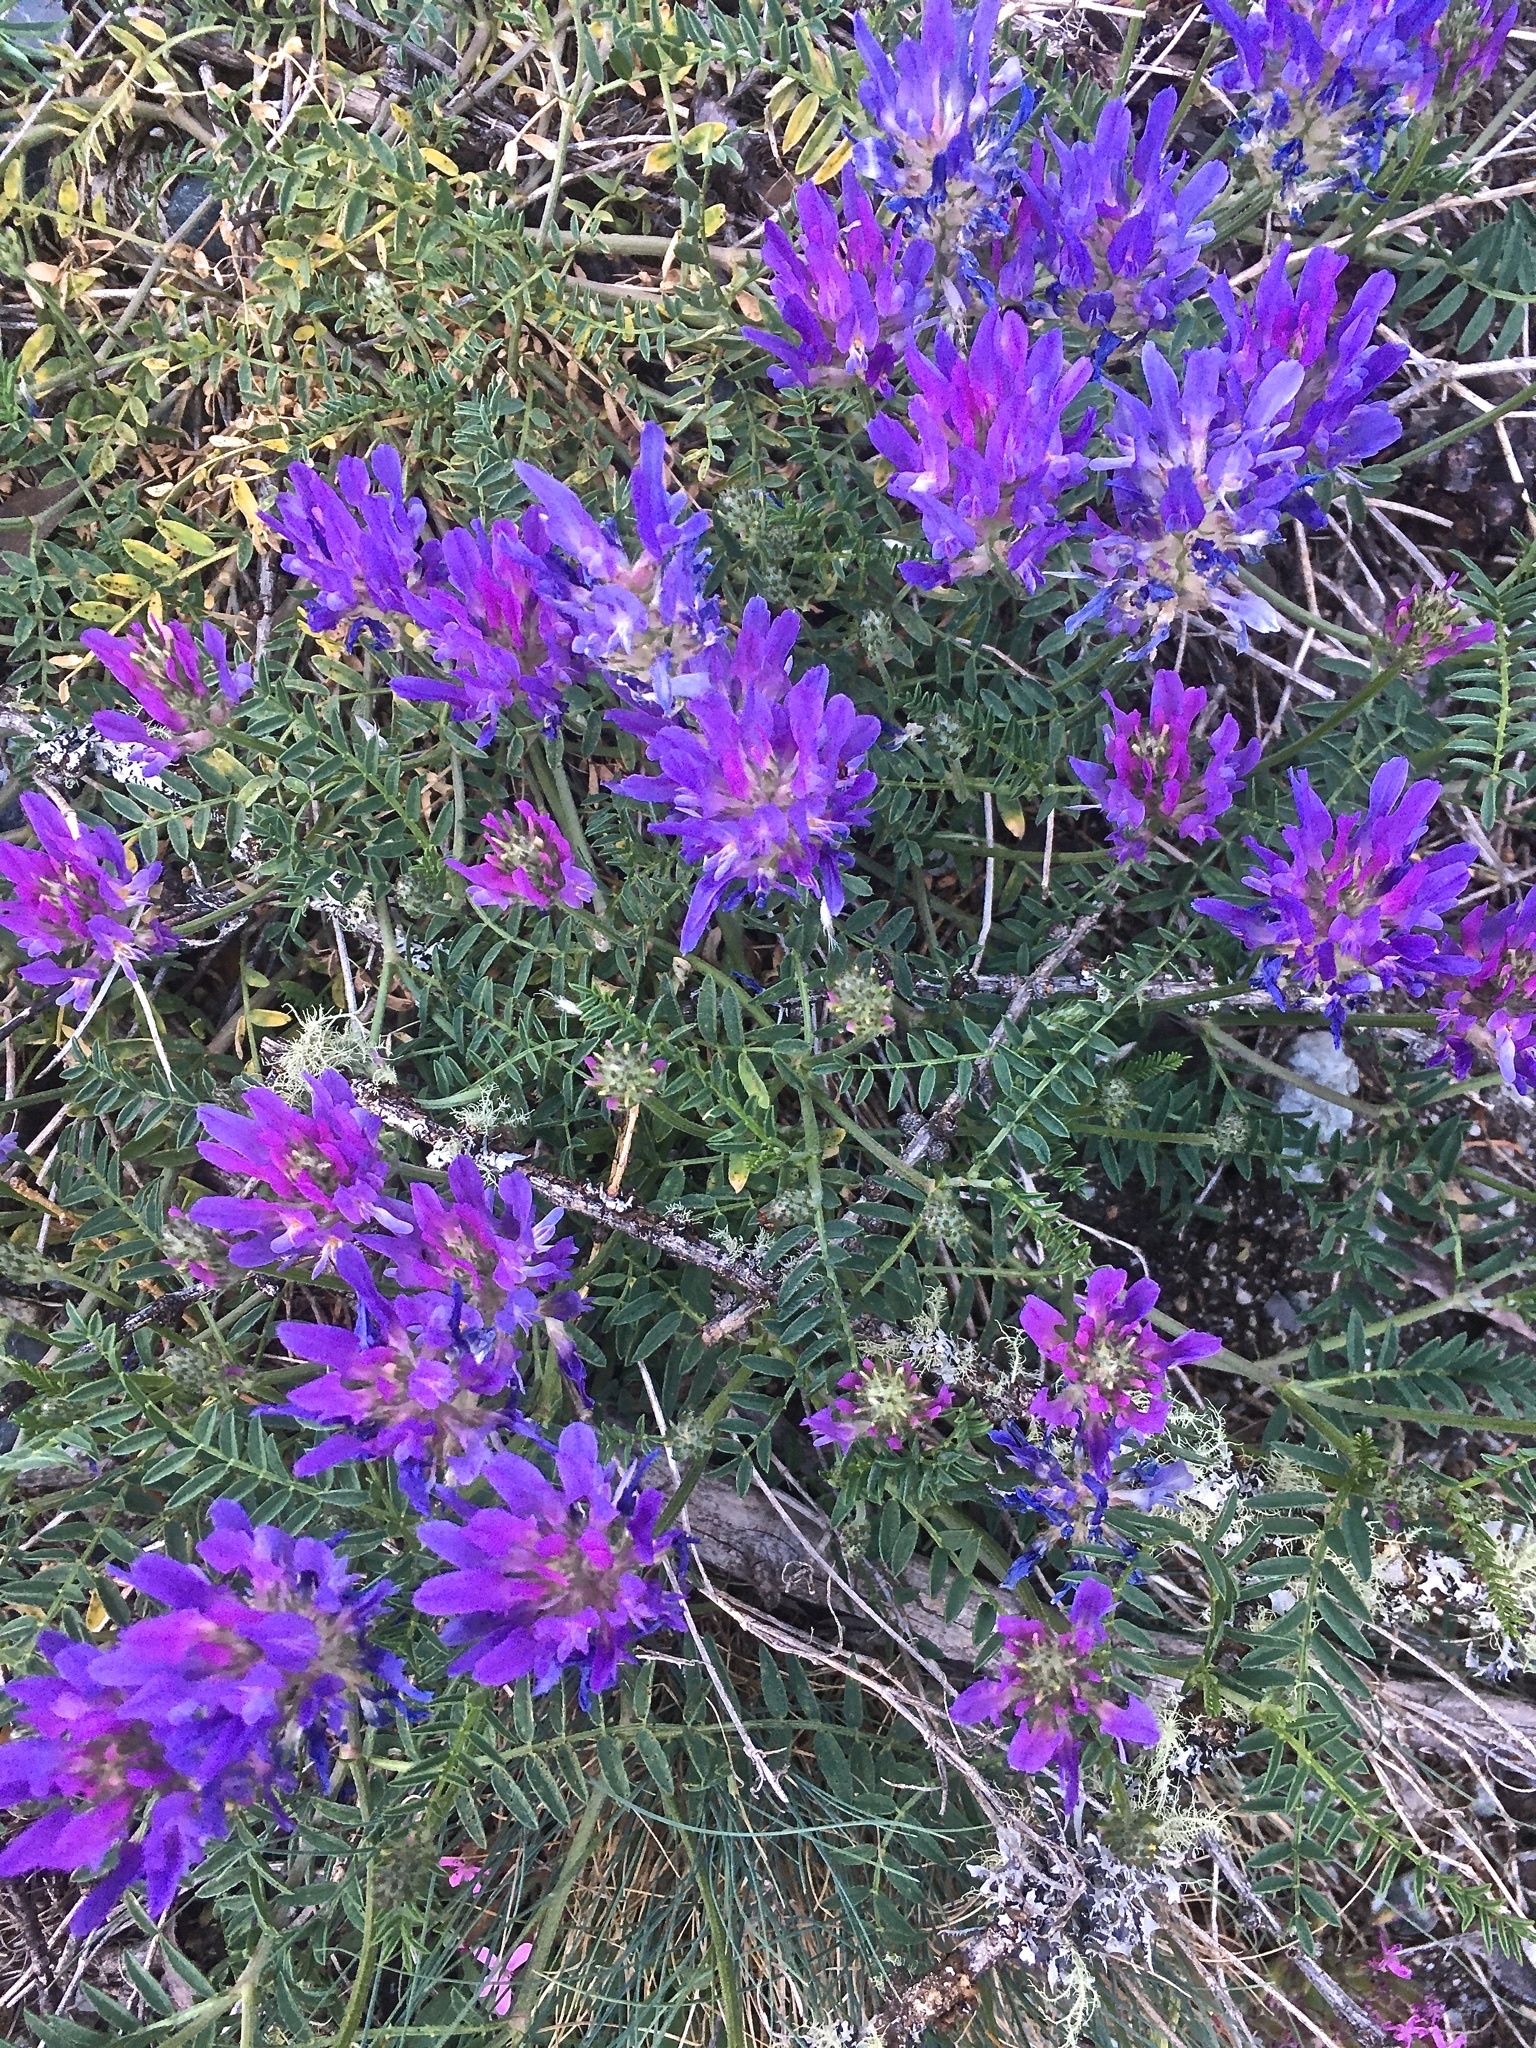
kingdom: Plantae
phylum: Tracheophyta
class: Magnoliopsida
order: Fabales
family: Fabaceae
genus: Astragalus
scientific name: Astragalus onobrychis
